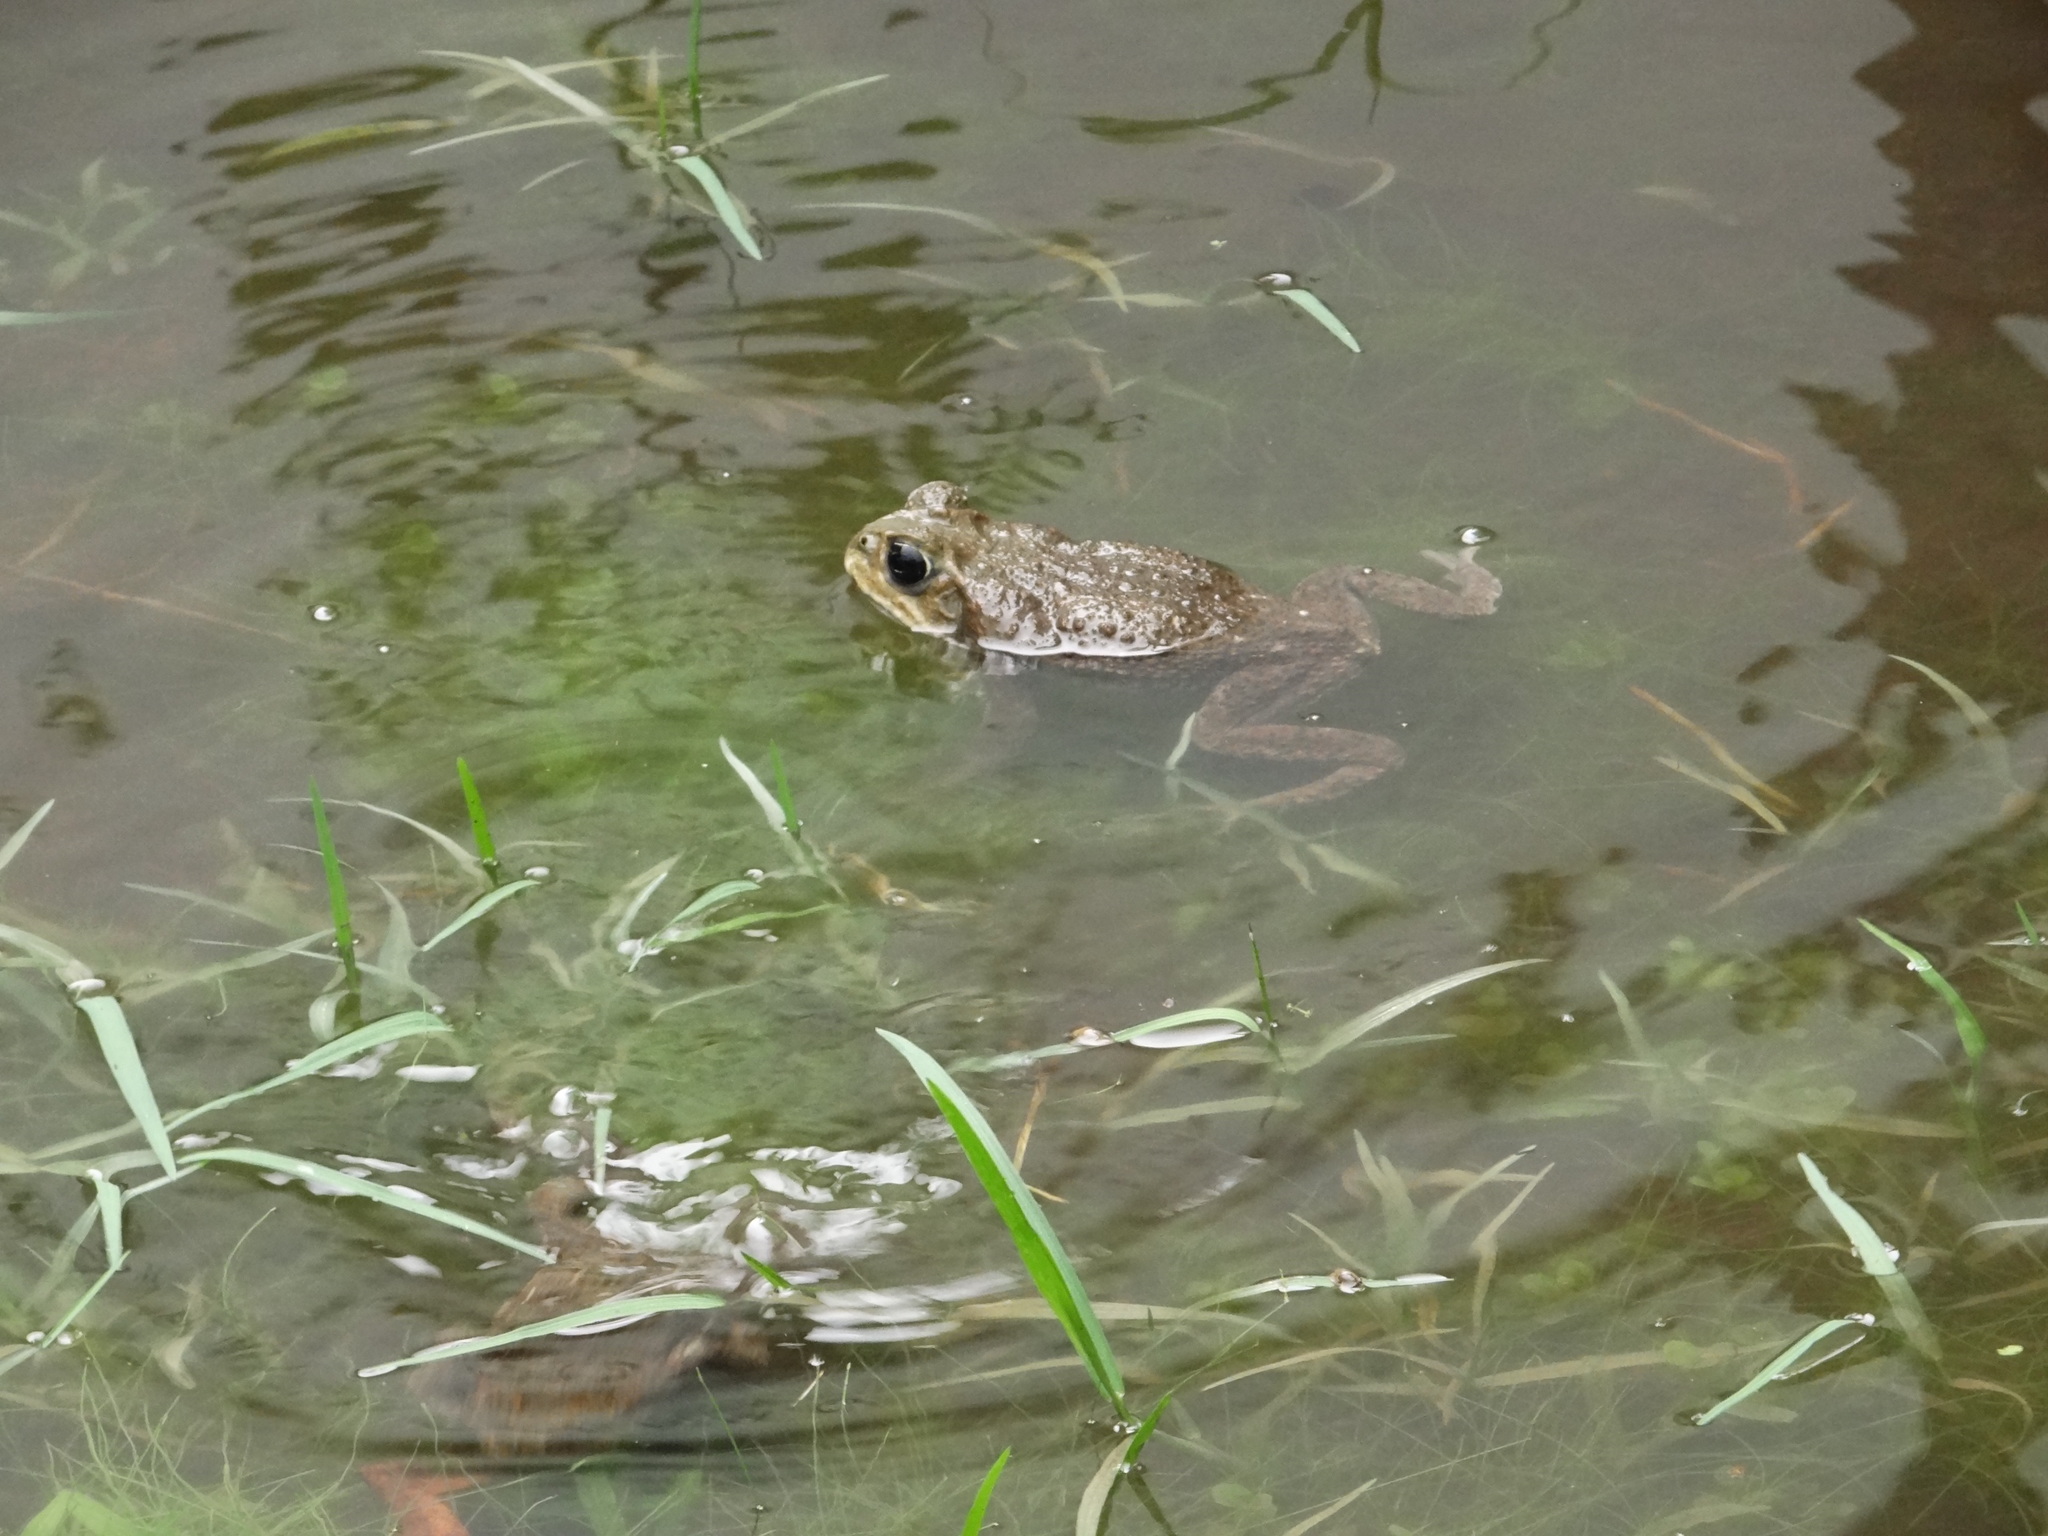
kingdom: Animalia
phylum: Chordata
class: Amphibia
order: Anura
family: Bufonidae
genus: Rhinella
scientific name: Rhinella horribilis
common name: Mesoamerican cane toad
